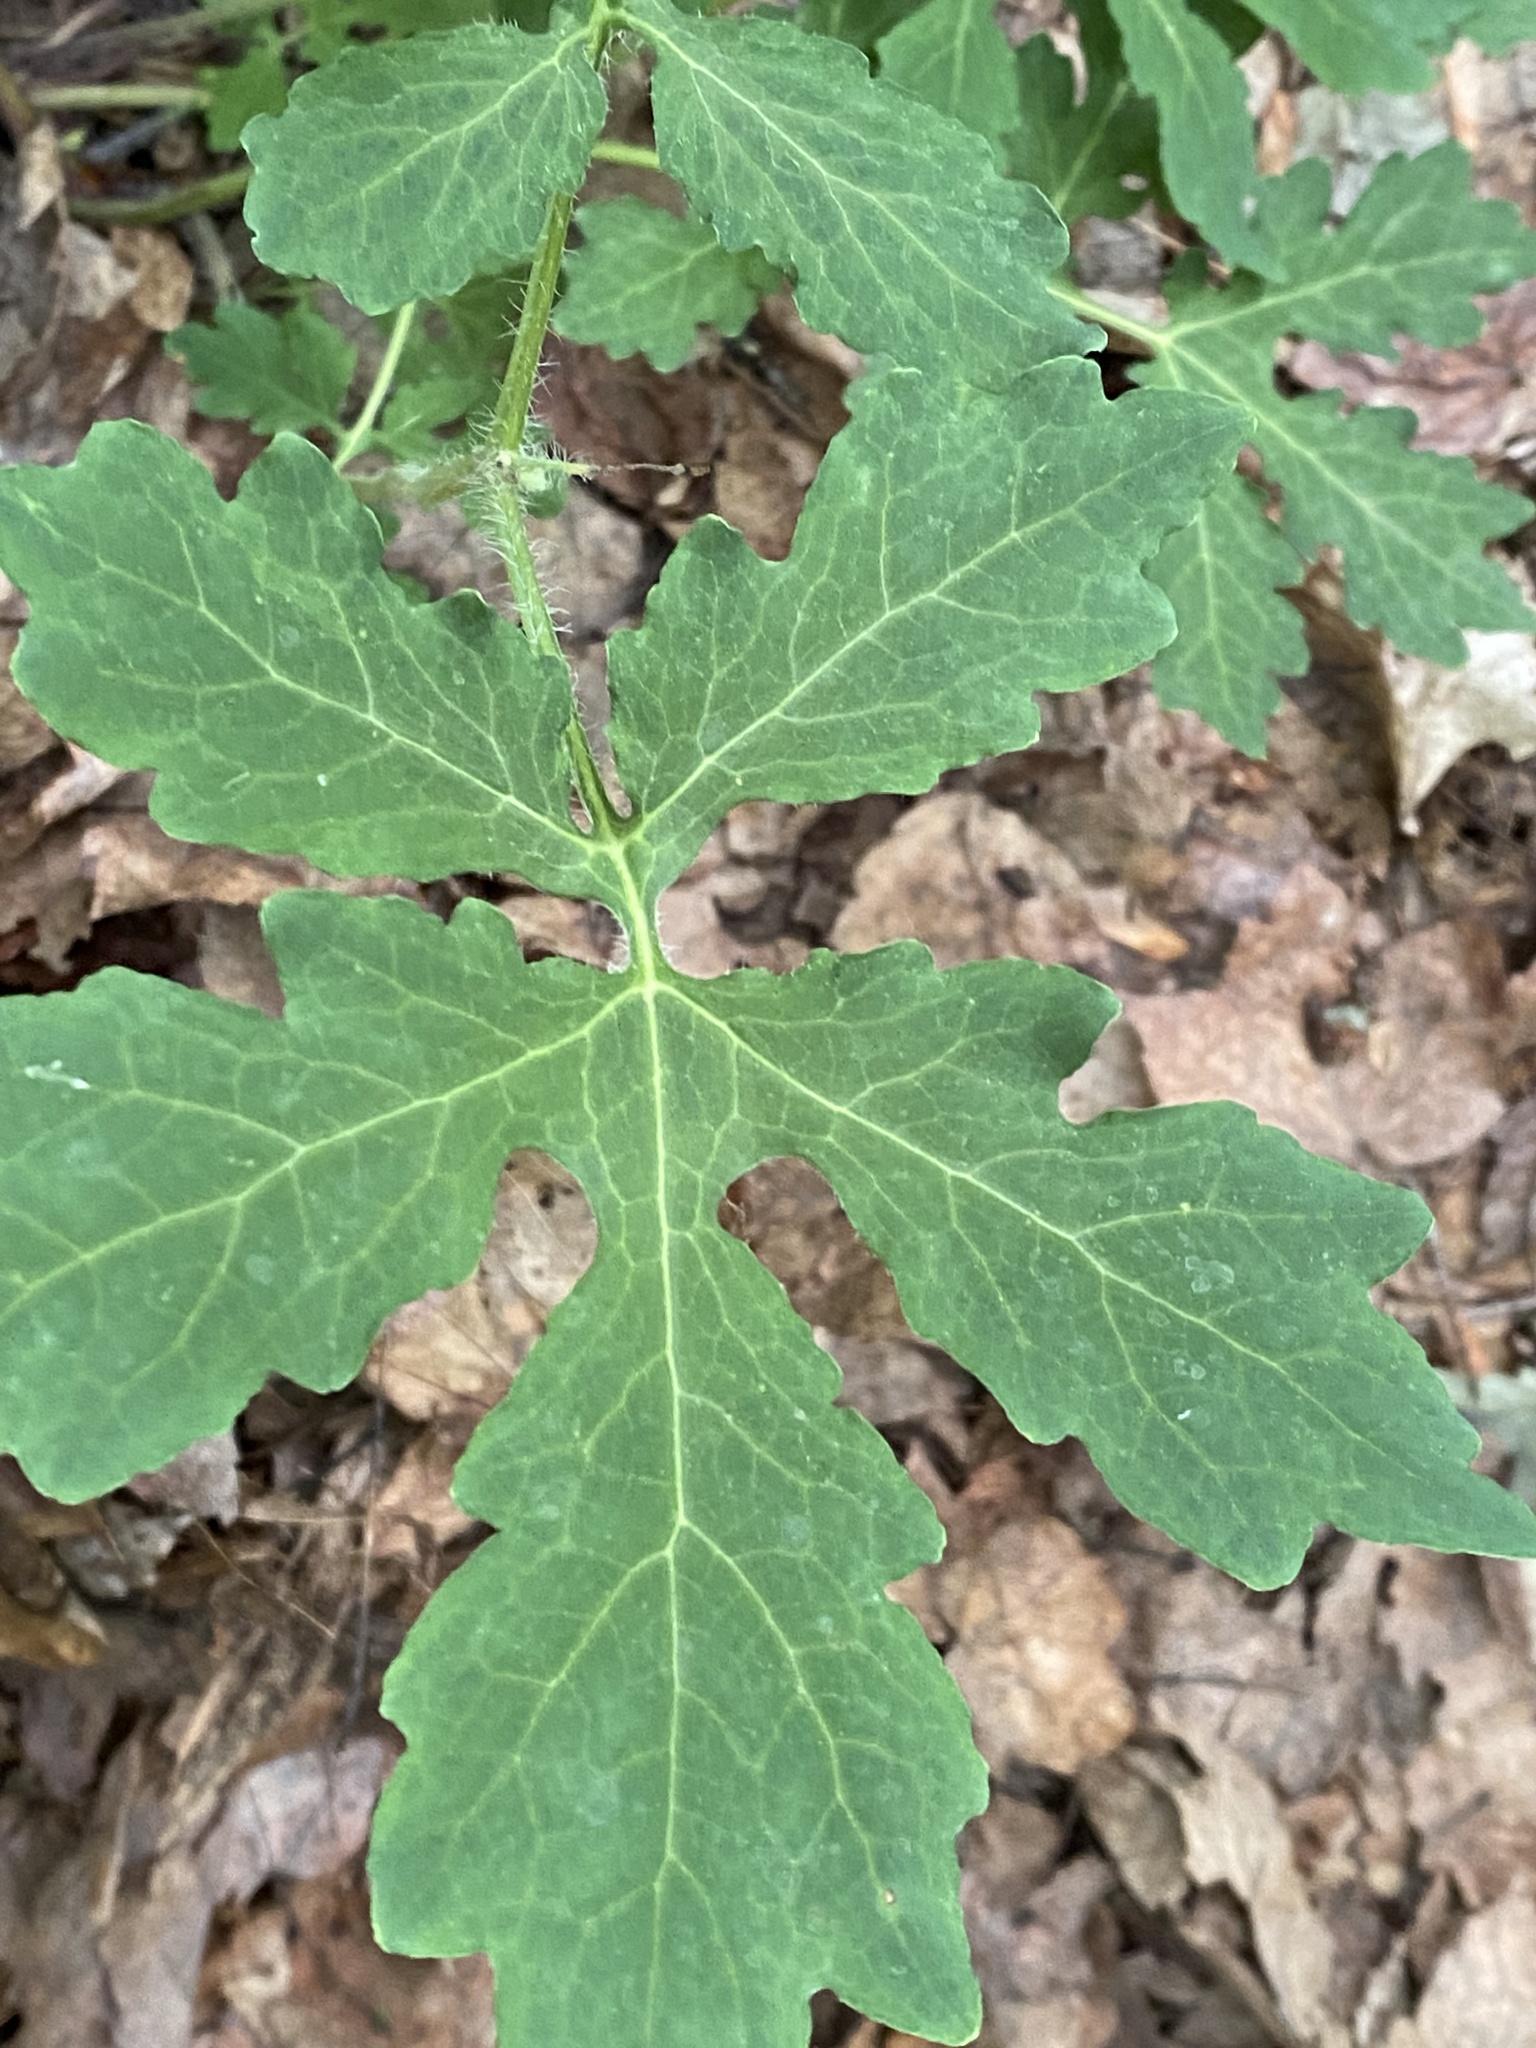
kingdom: Plantae
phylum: Tracheophyta
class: Magnoliopsida
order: Ranunculales
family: Papaveraceae
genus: Stylophorum
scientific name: Stylophorum diphyllum
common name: Celandine poppy
